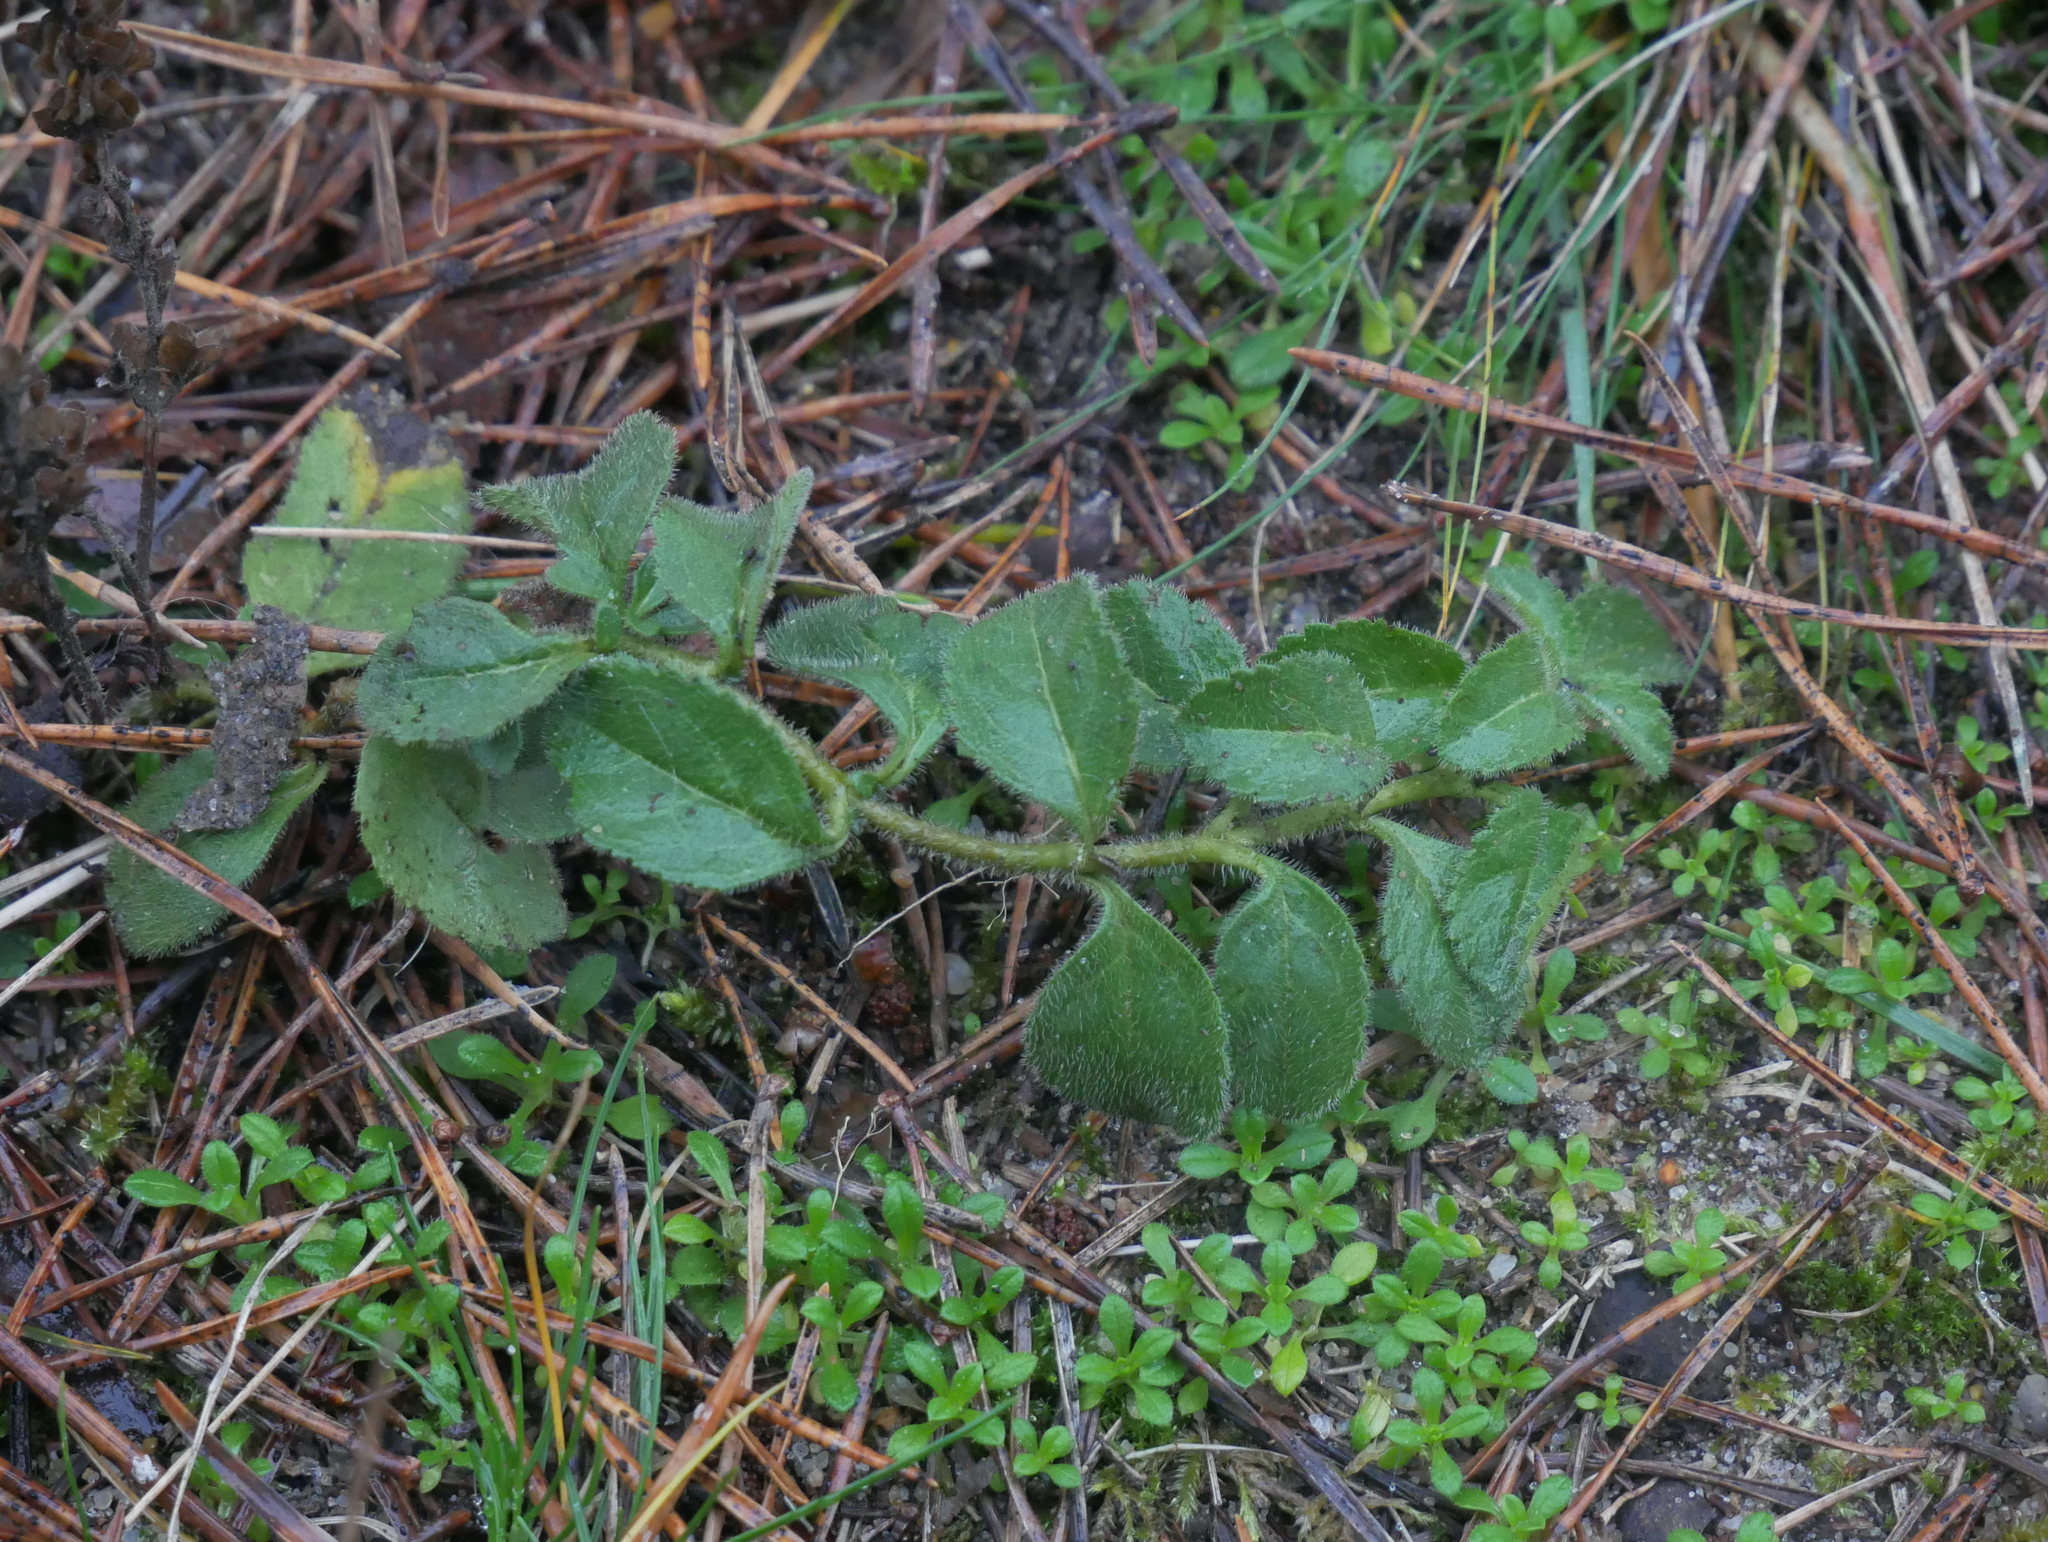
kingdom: Plantae
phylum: Tracheophyta
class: Magnoliopsida
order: Lamiales
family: Plantaginaceae
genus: Veronica
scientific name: Veronica officinalis
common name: Common speedwell
